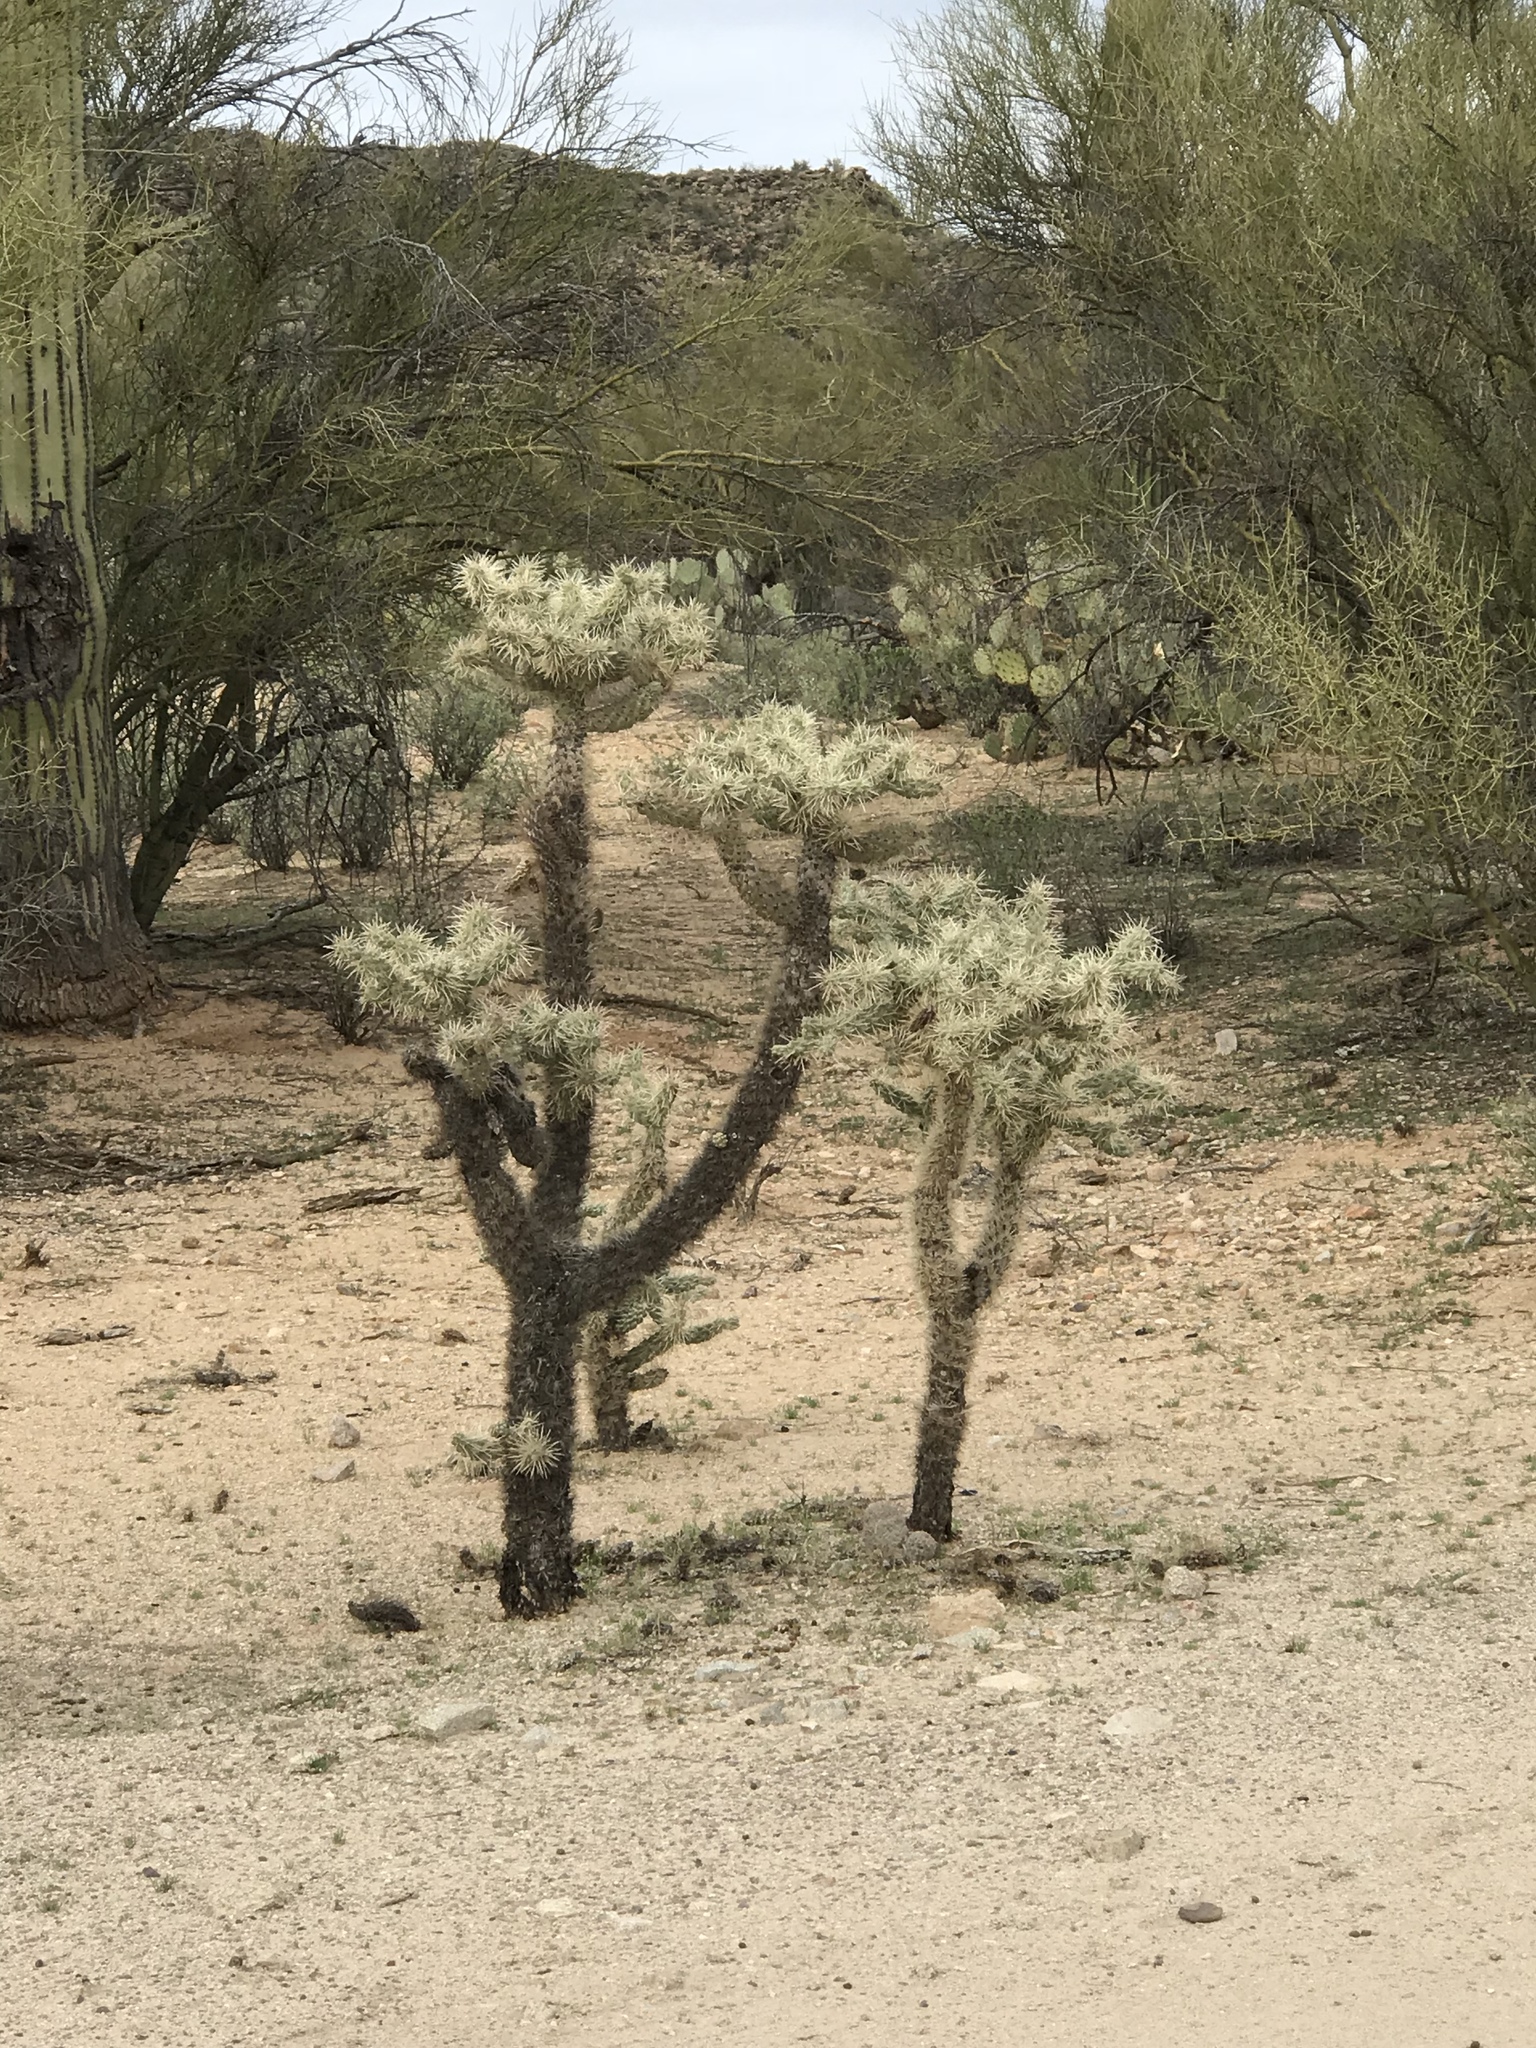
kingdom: Plantae
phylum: Tracheophyta
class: Magnoliopsida
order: Caryophyllales
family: Cactaceae
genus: Cylindropuntia
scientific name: Cylindropuntia fulgida
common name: Jumping cholla
